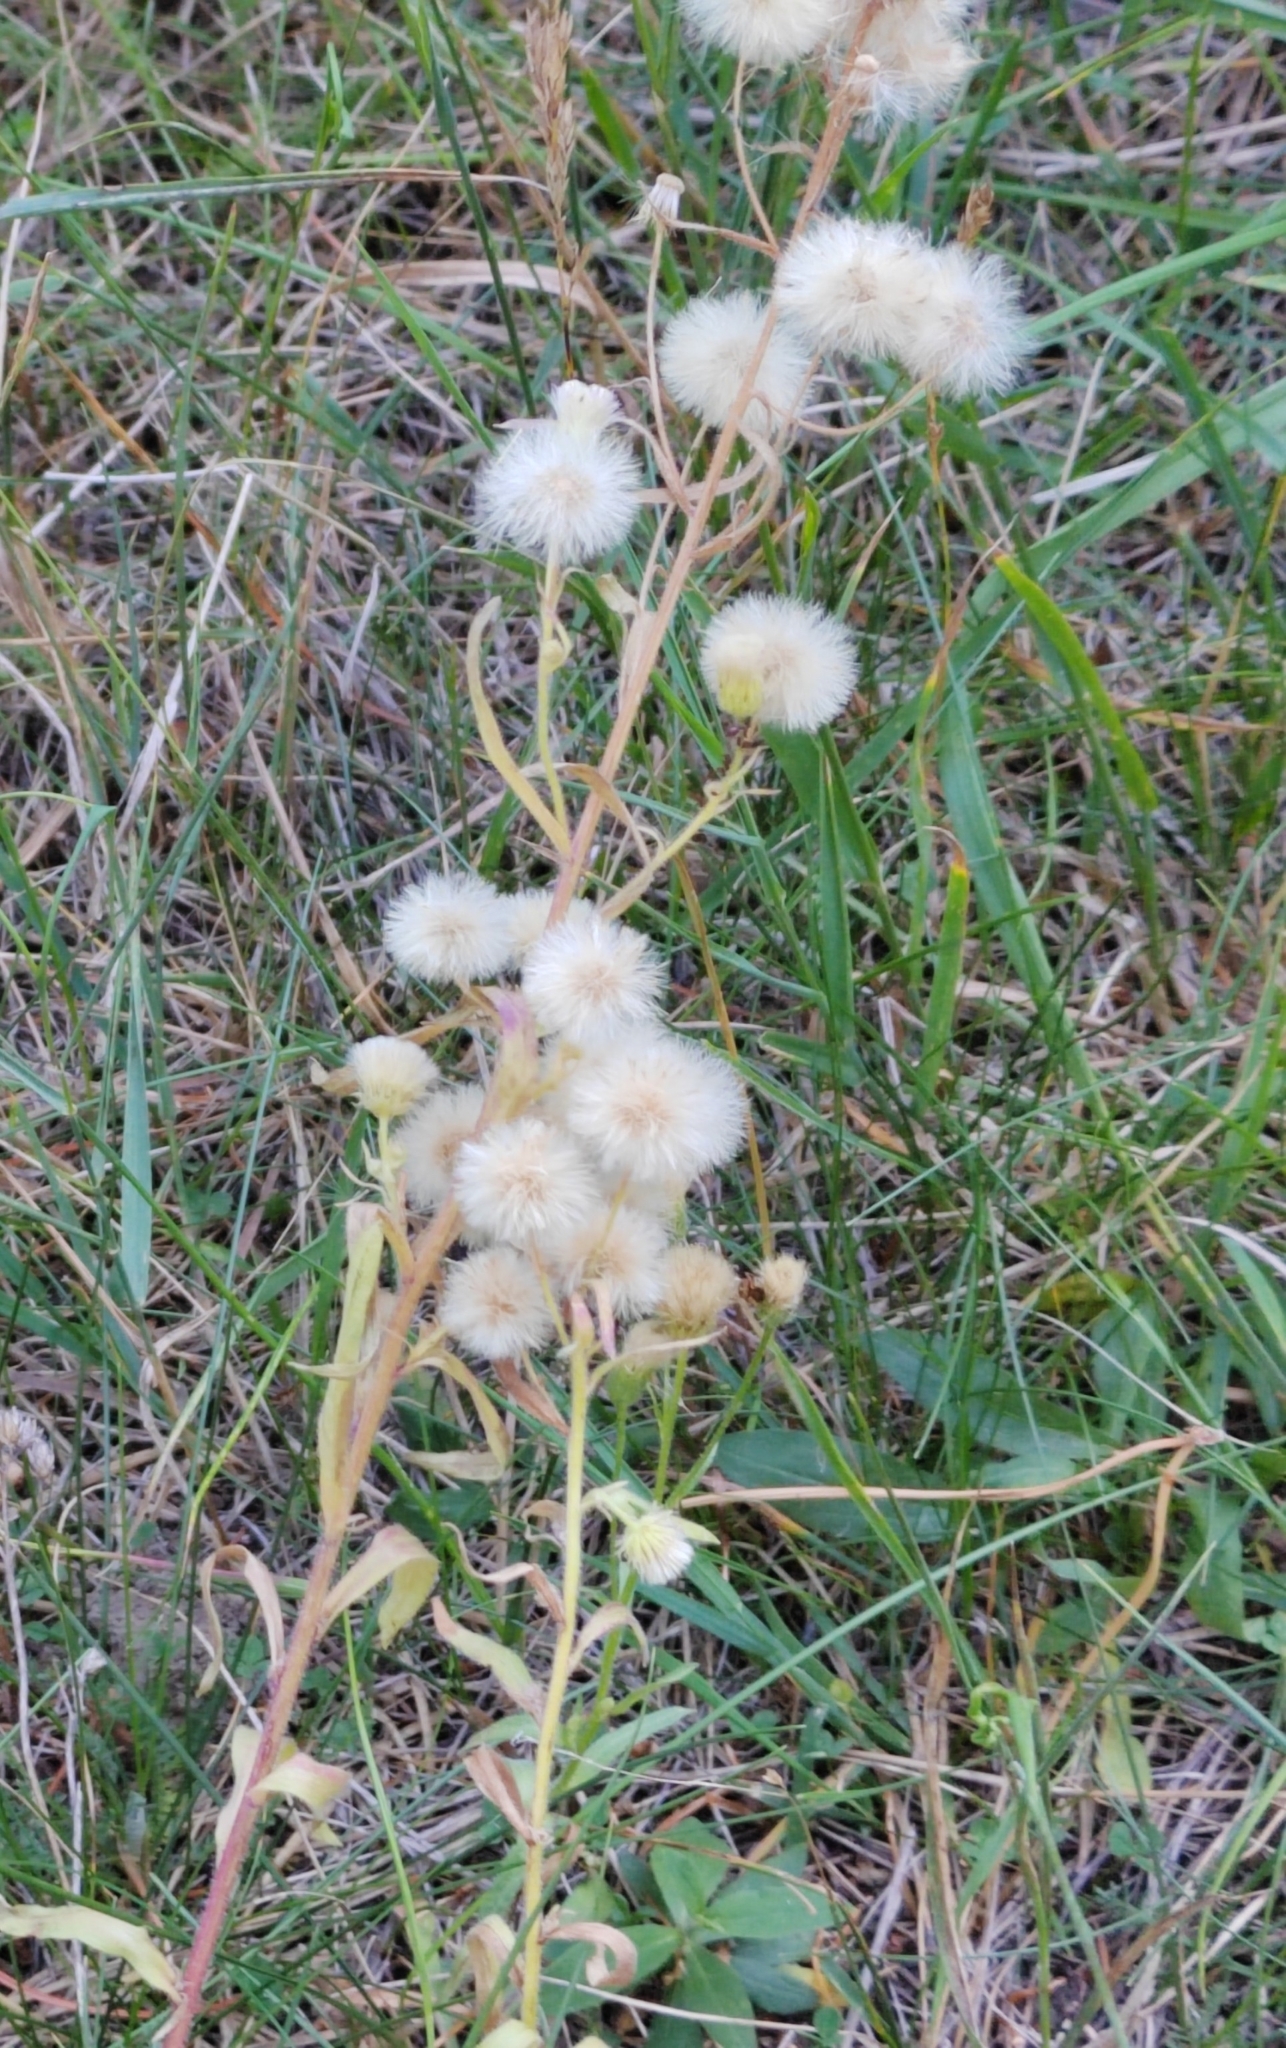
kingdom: Plantae
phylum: Tracheophyta
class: Magnoliopsida
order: Asterales
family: Asteraceae
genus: Erigeron
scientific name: Erigeron acris
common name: Blue fleabane
